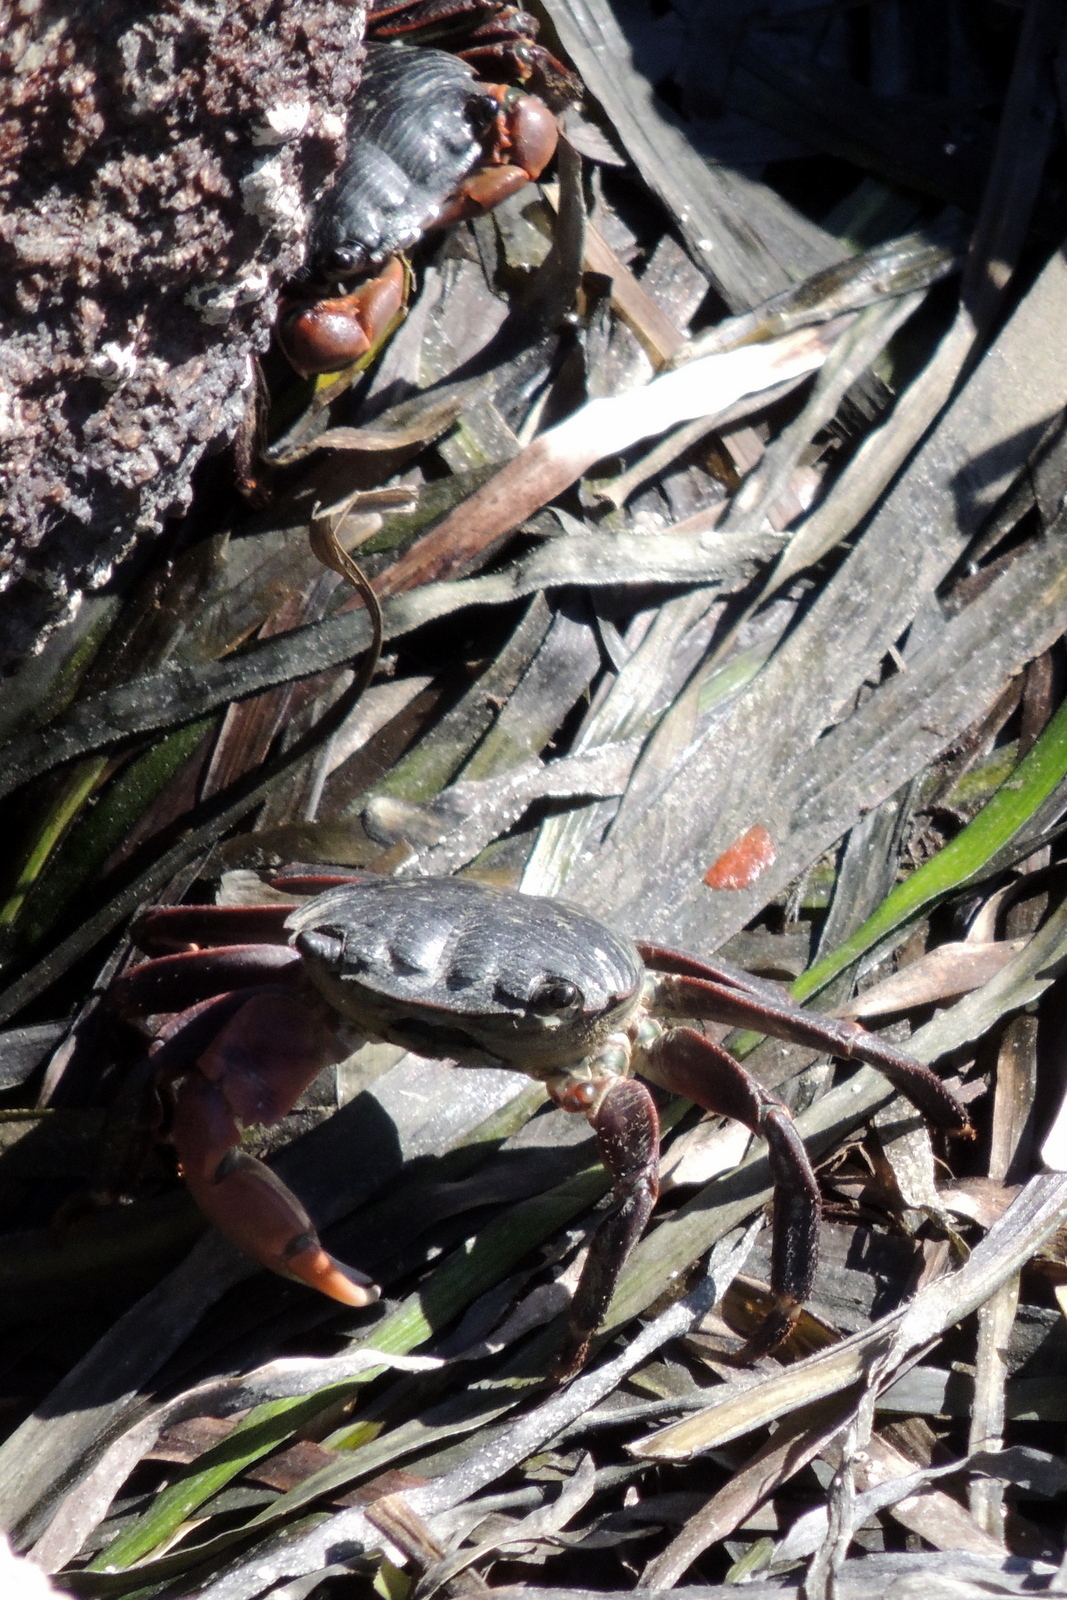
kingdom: Animalia
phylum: Arthropoda
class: Malacostraca
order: Decapoda
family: Grapsidae
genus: Pachygrapsus
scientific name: Pachygrapsus crassipes
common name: Striped shore crab
